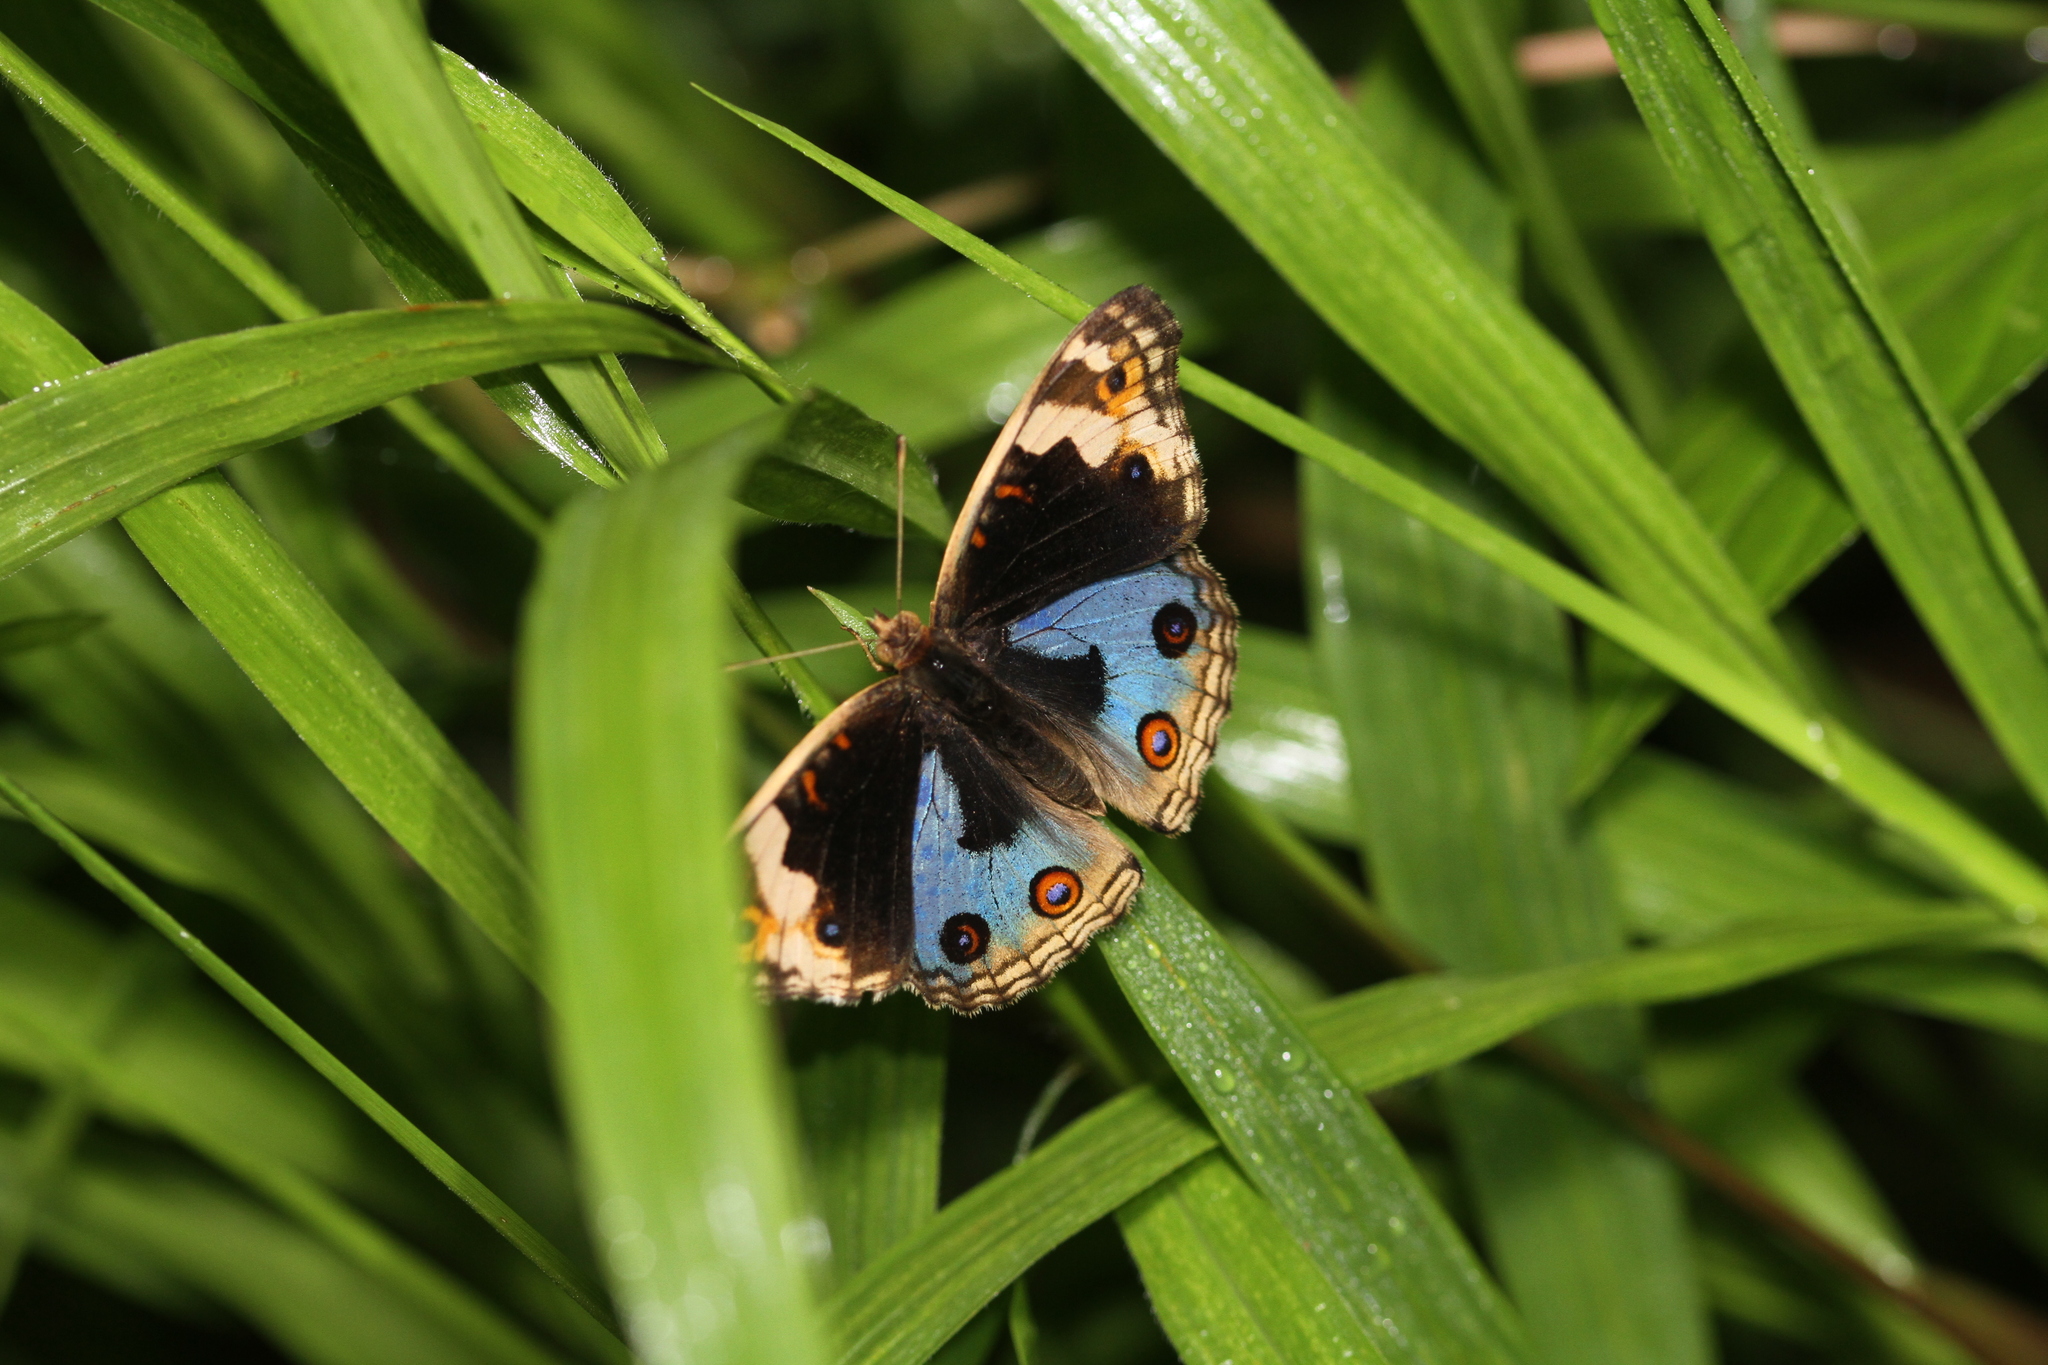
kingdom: Animalia
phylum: Arthropoda
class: Insecta
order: Lepidoptera
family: Nymphalidae
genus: Junonia
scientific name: Junonia orithya
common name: Blue pansy
